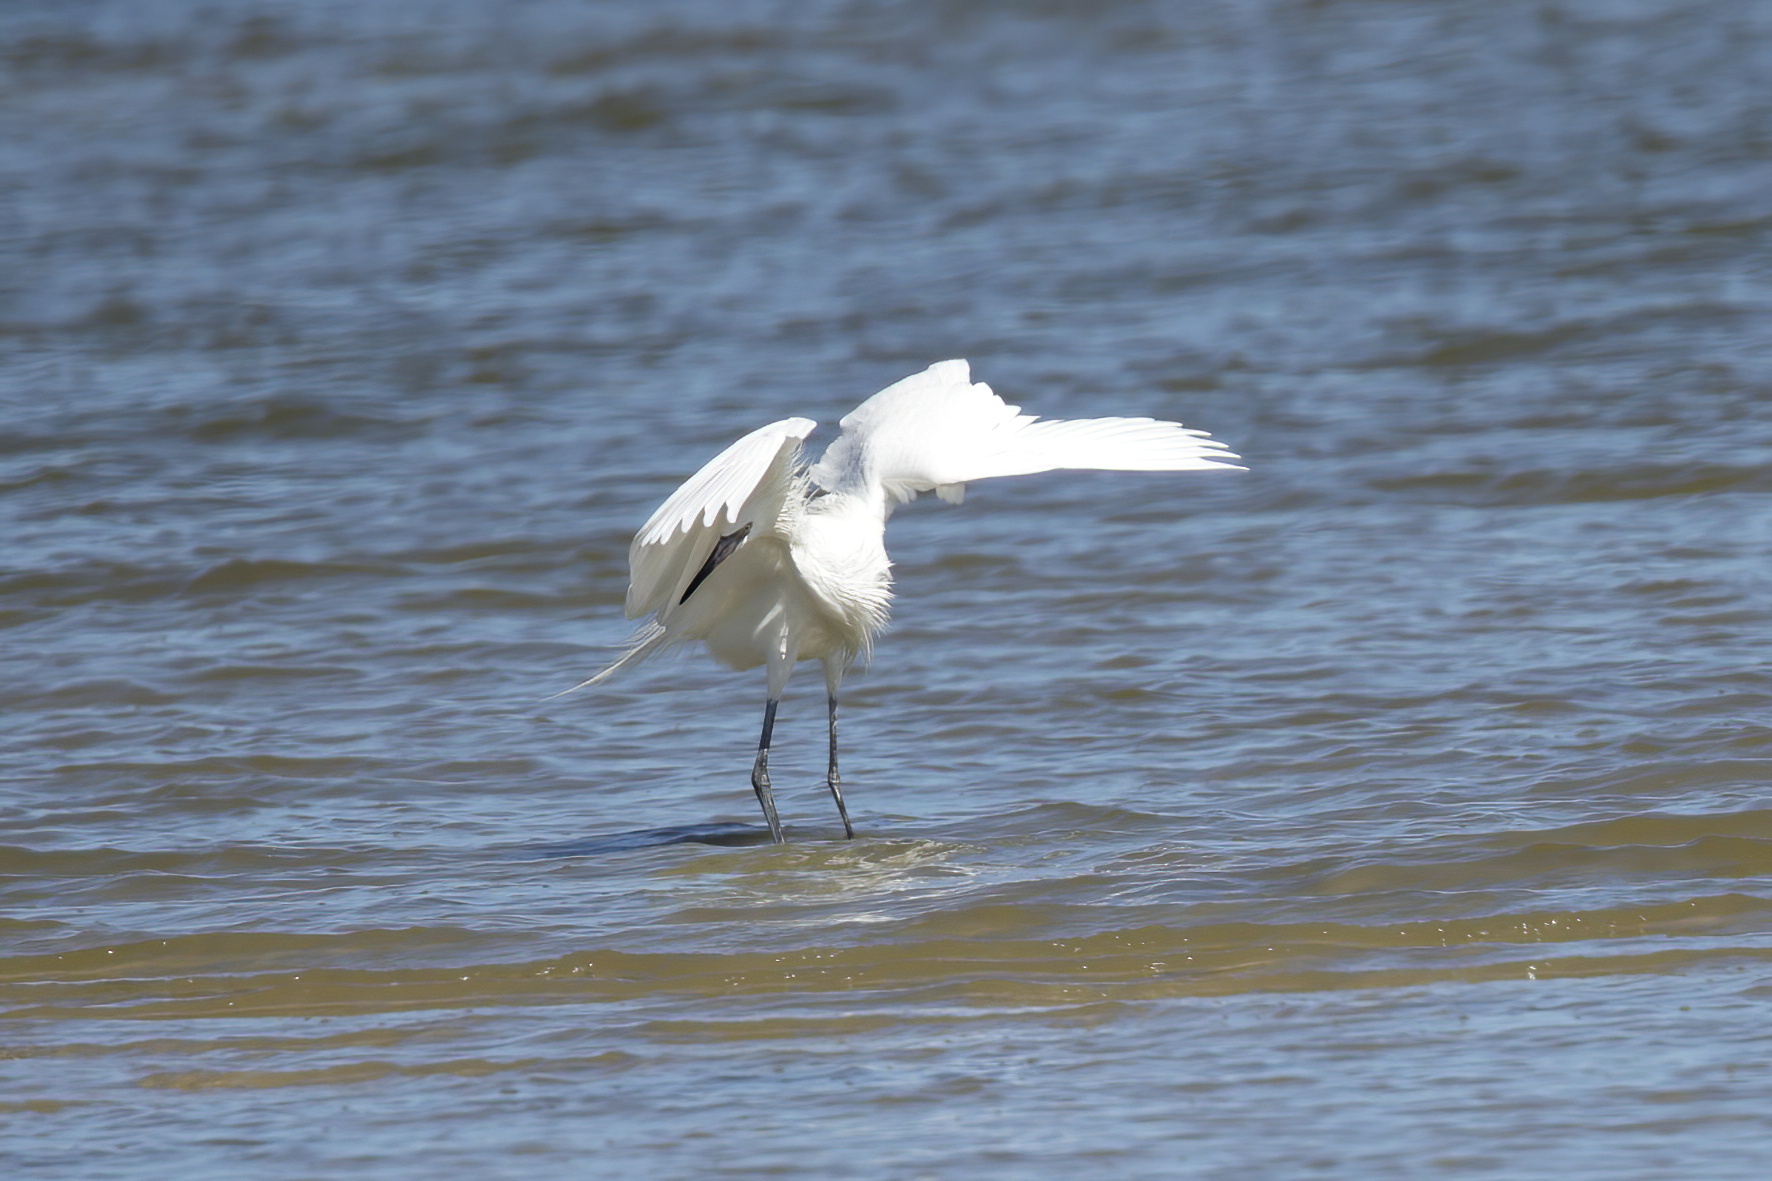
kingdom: Animalia
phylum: Chordata
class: Aves
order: Pelecaniformes
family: Ardeidae
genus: Egretta
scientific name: Egretta rufescens
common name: Reddish egret
